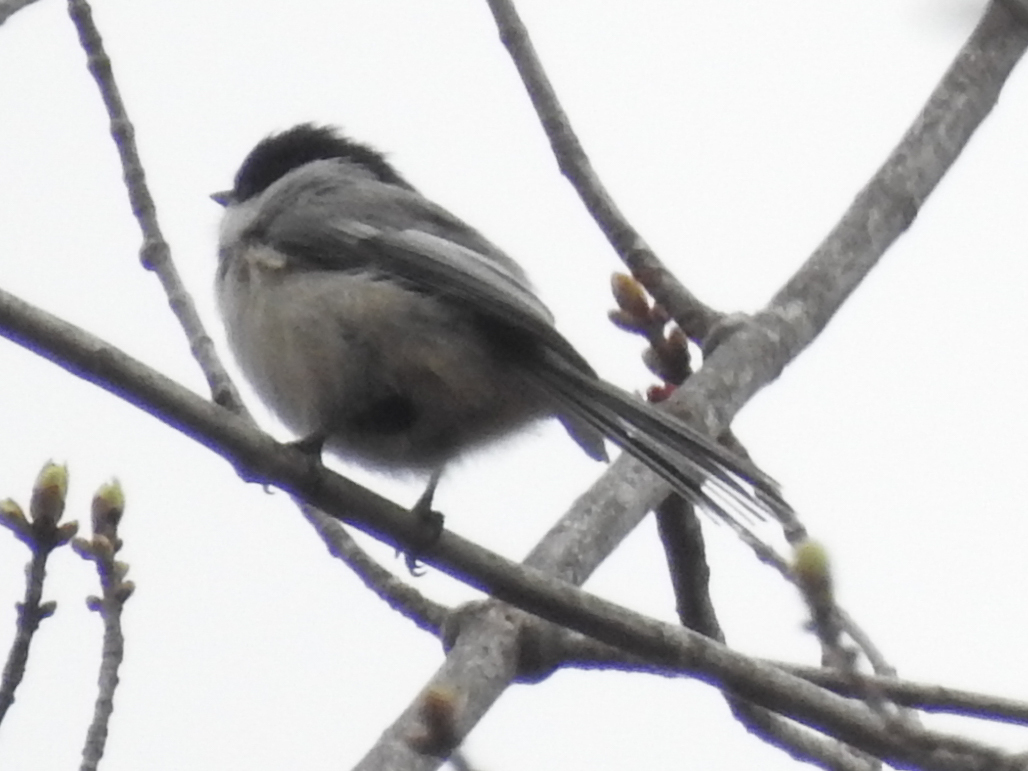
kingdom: Animalia
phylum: Chordata
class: Aves
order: Passeriformes
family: Paridae
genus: Poecile
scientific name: Poecile atricapillus
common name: Black-capped chickadee
